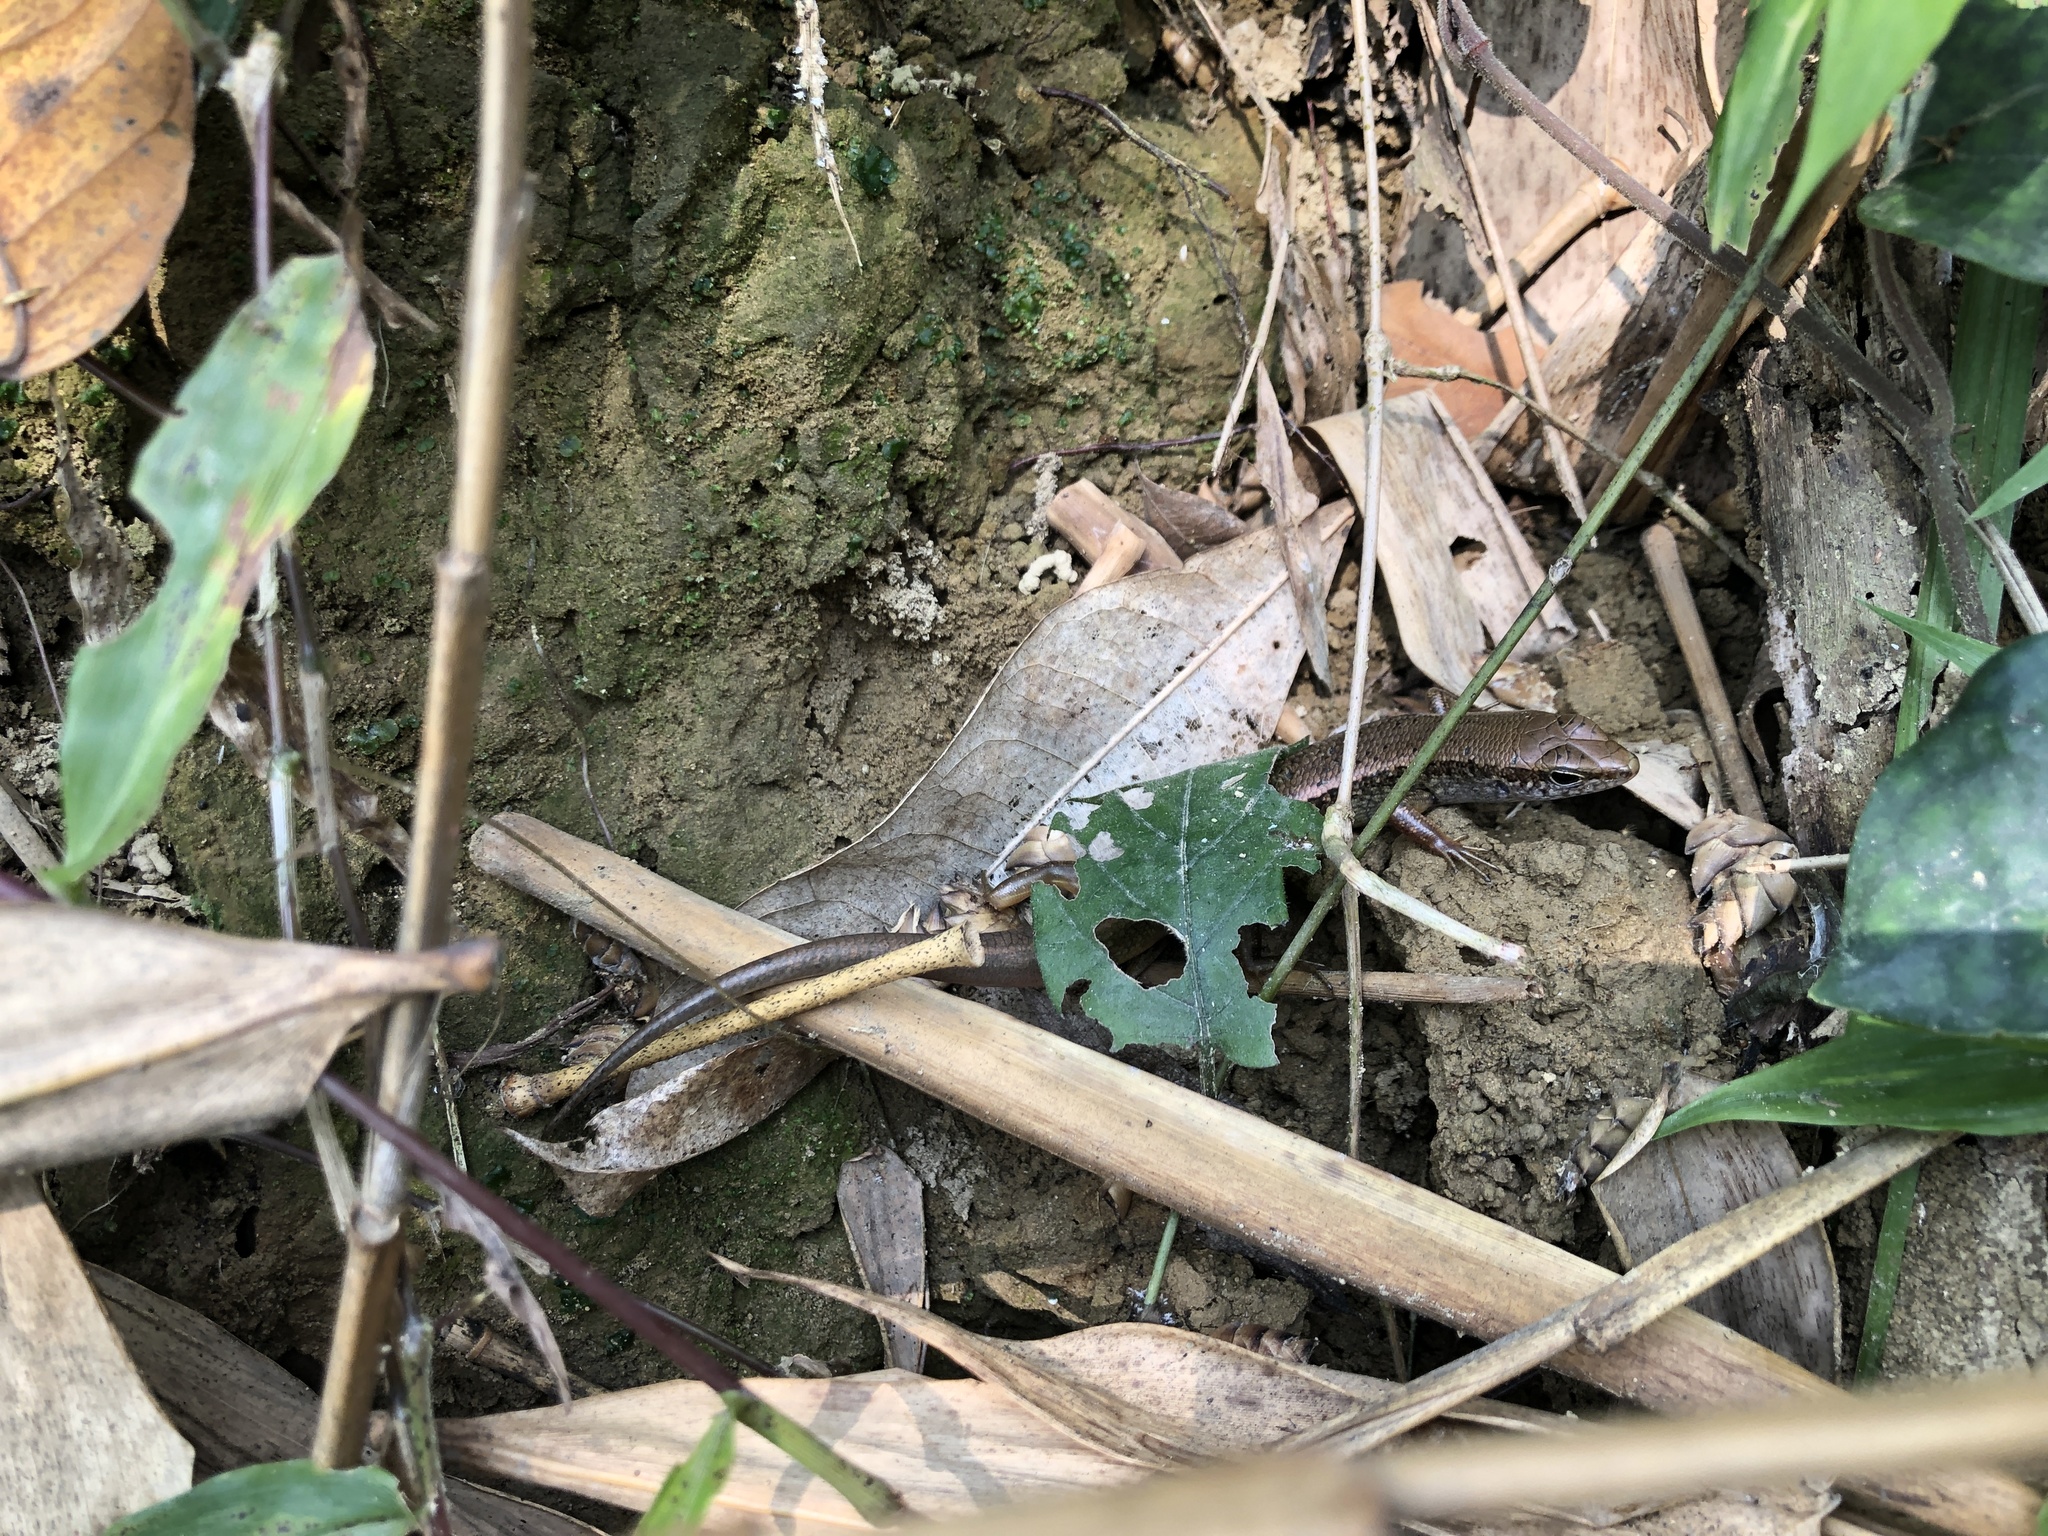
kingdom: Animalia
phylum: Chordata
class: Squamata
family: Scincidae
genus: Sphenomorphus
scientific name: Sphenomorphus indicus
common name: Himalayan forest skink
